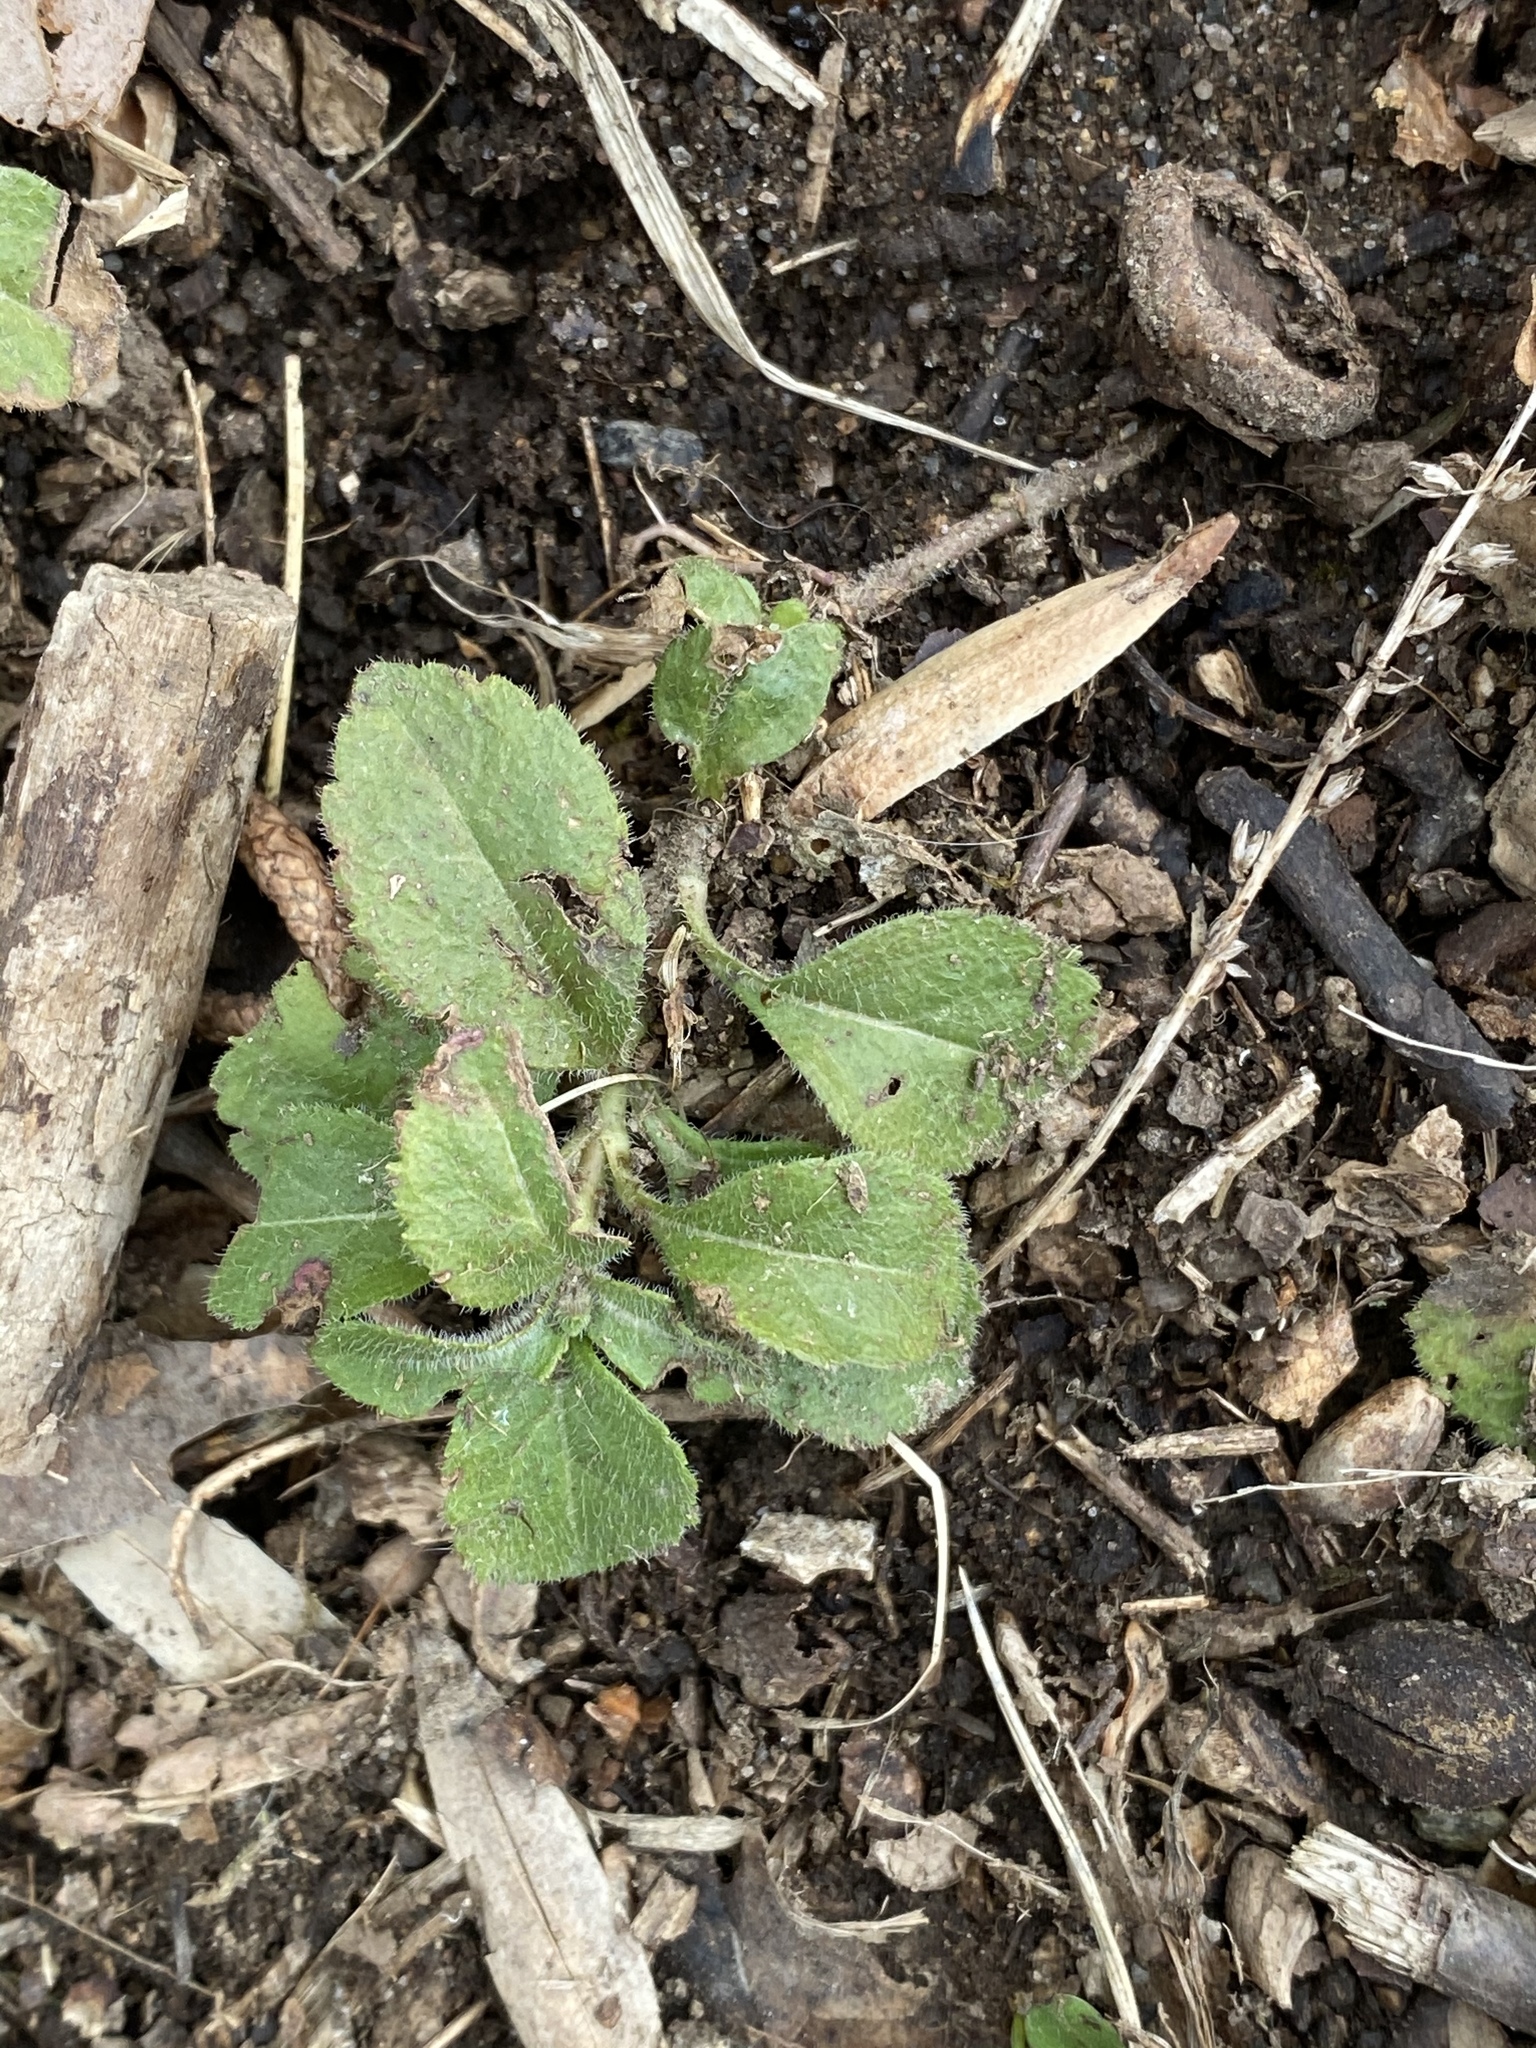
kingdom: Plantae
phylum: Tracheophyta
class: Magnoliopsida
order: Lamiales
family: Plantaginaceae
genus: Veronica
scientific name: Veronica officinalis
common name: Common speedwell
